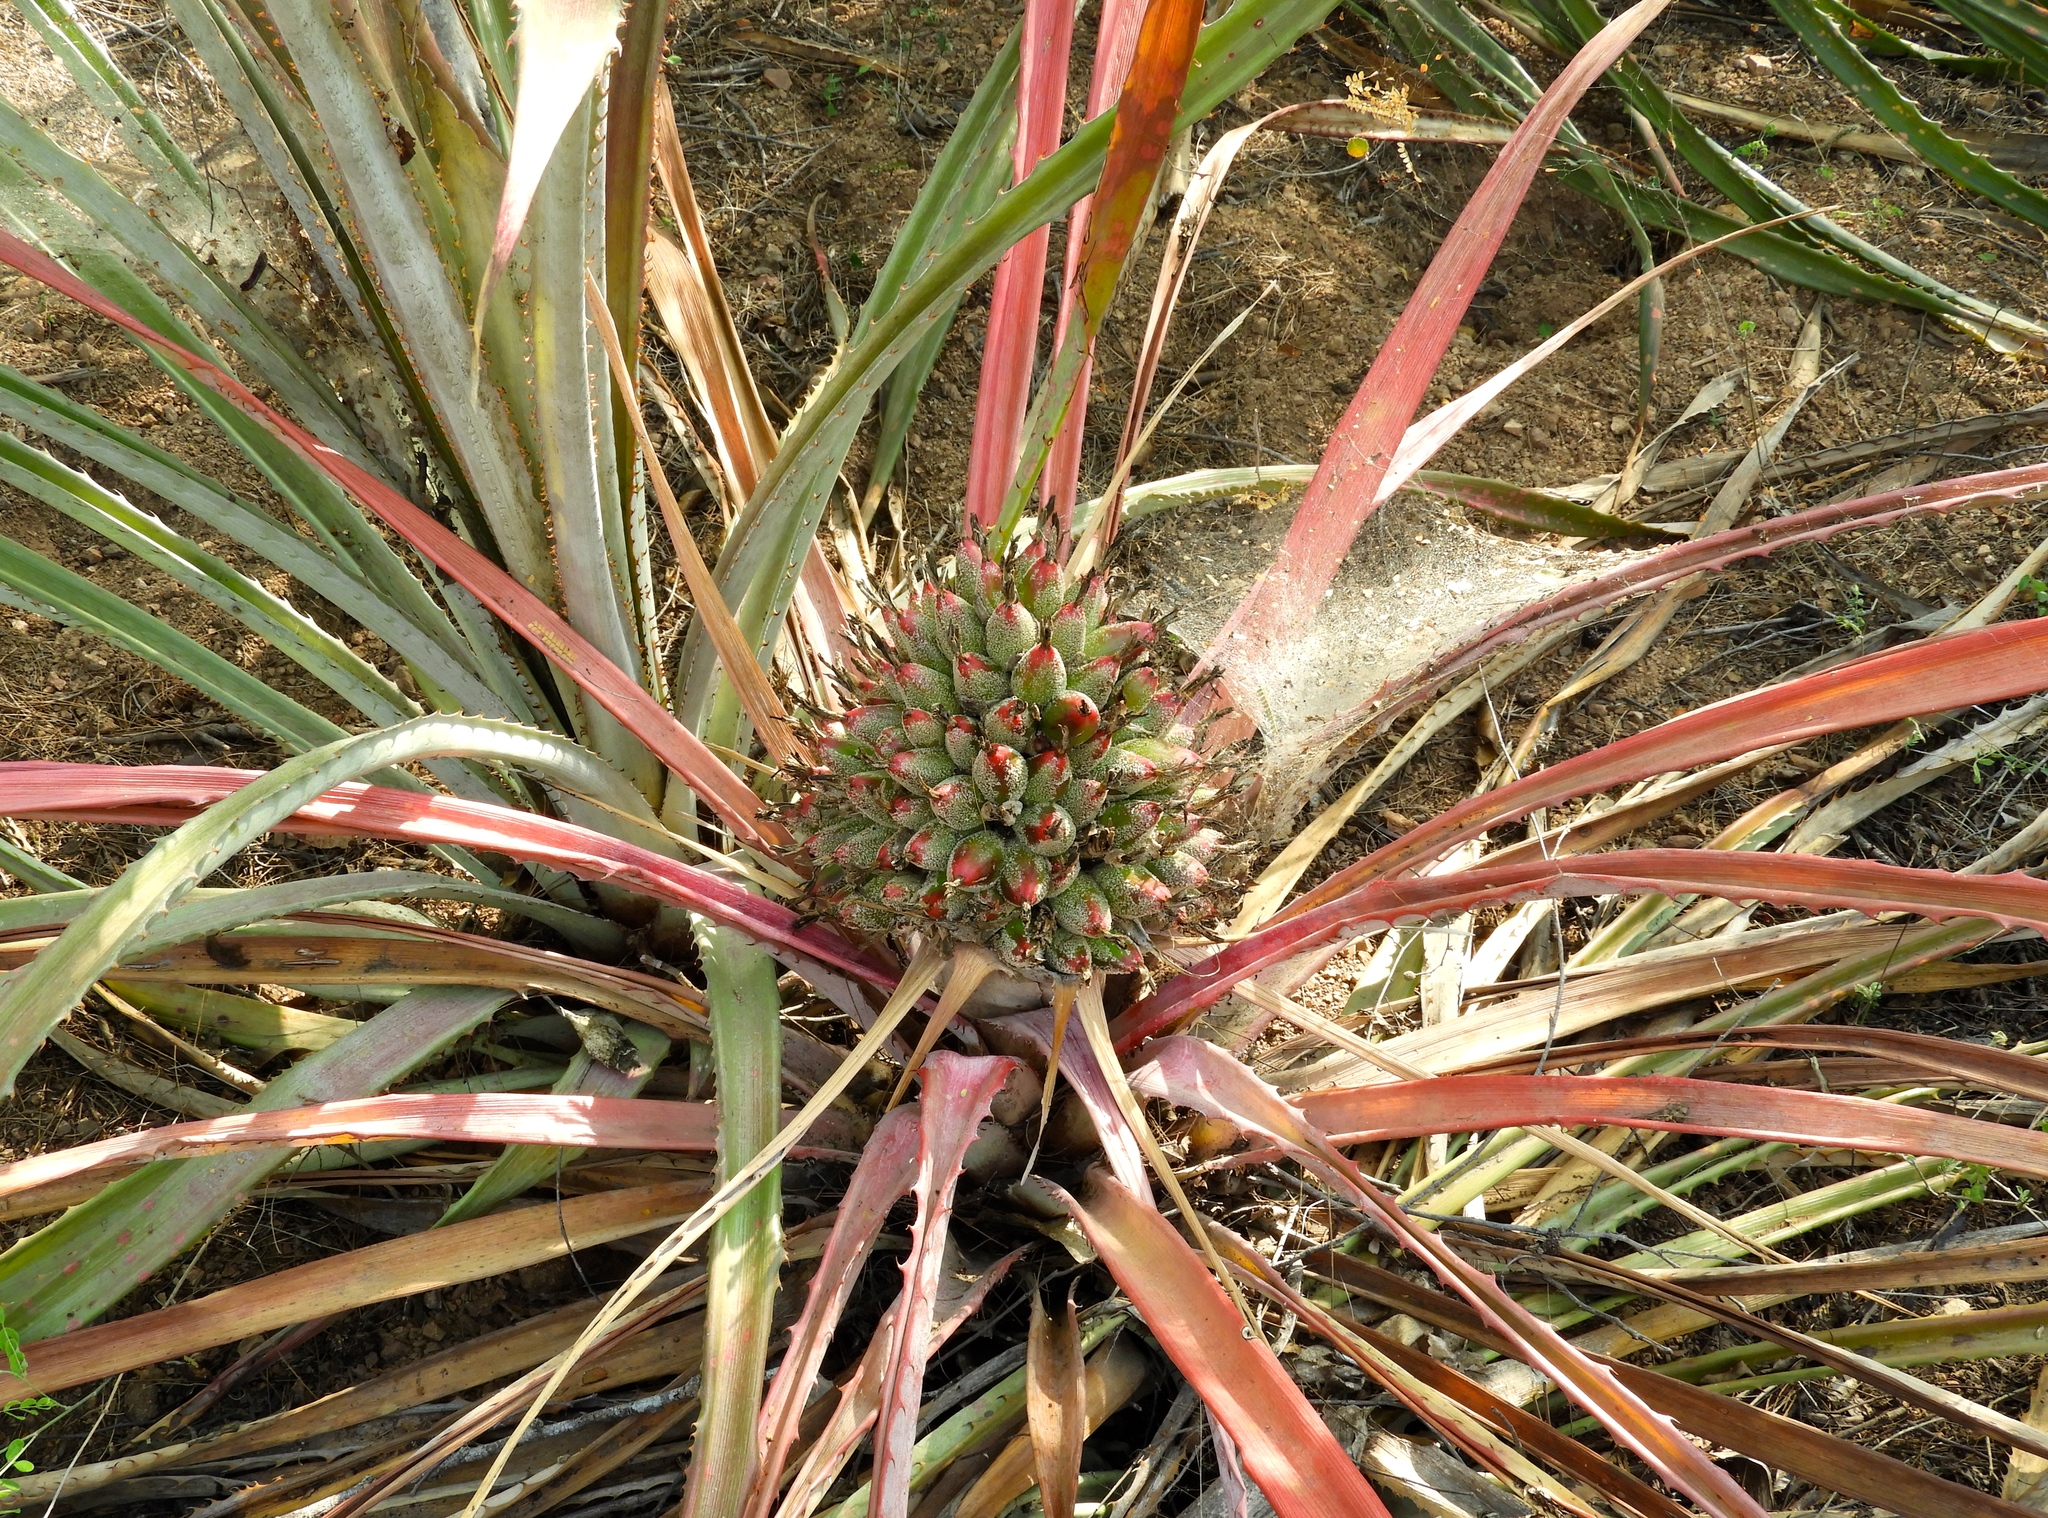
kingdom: Plantae
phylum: Tracheophyta
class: Liliopsida
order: Poales
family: Bromeliaceae
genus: Bromelia
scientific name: Bromelia hemisphaerica
